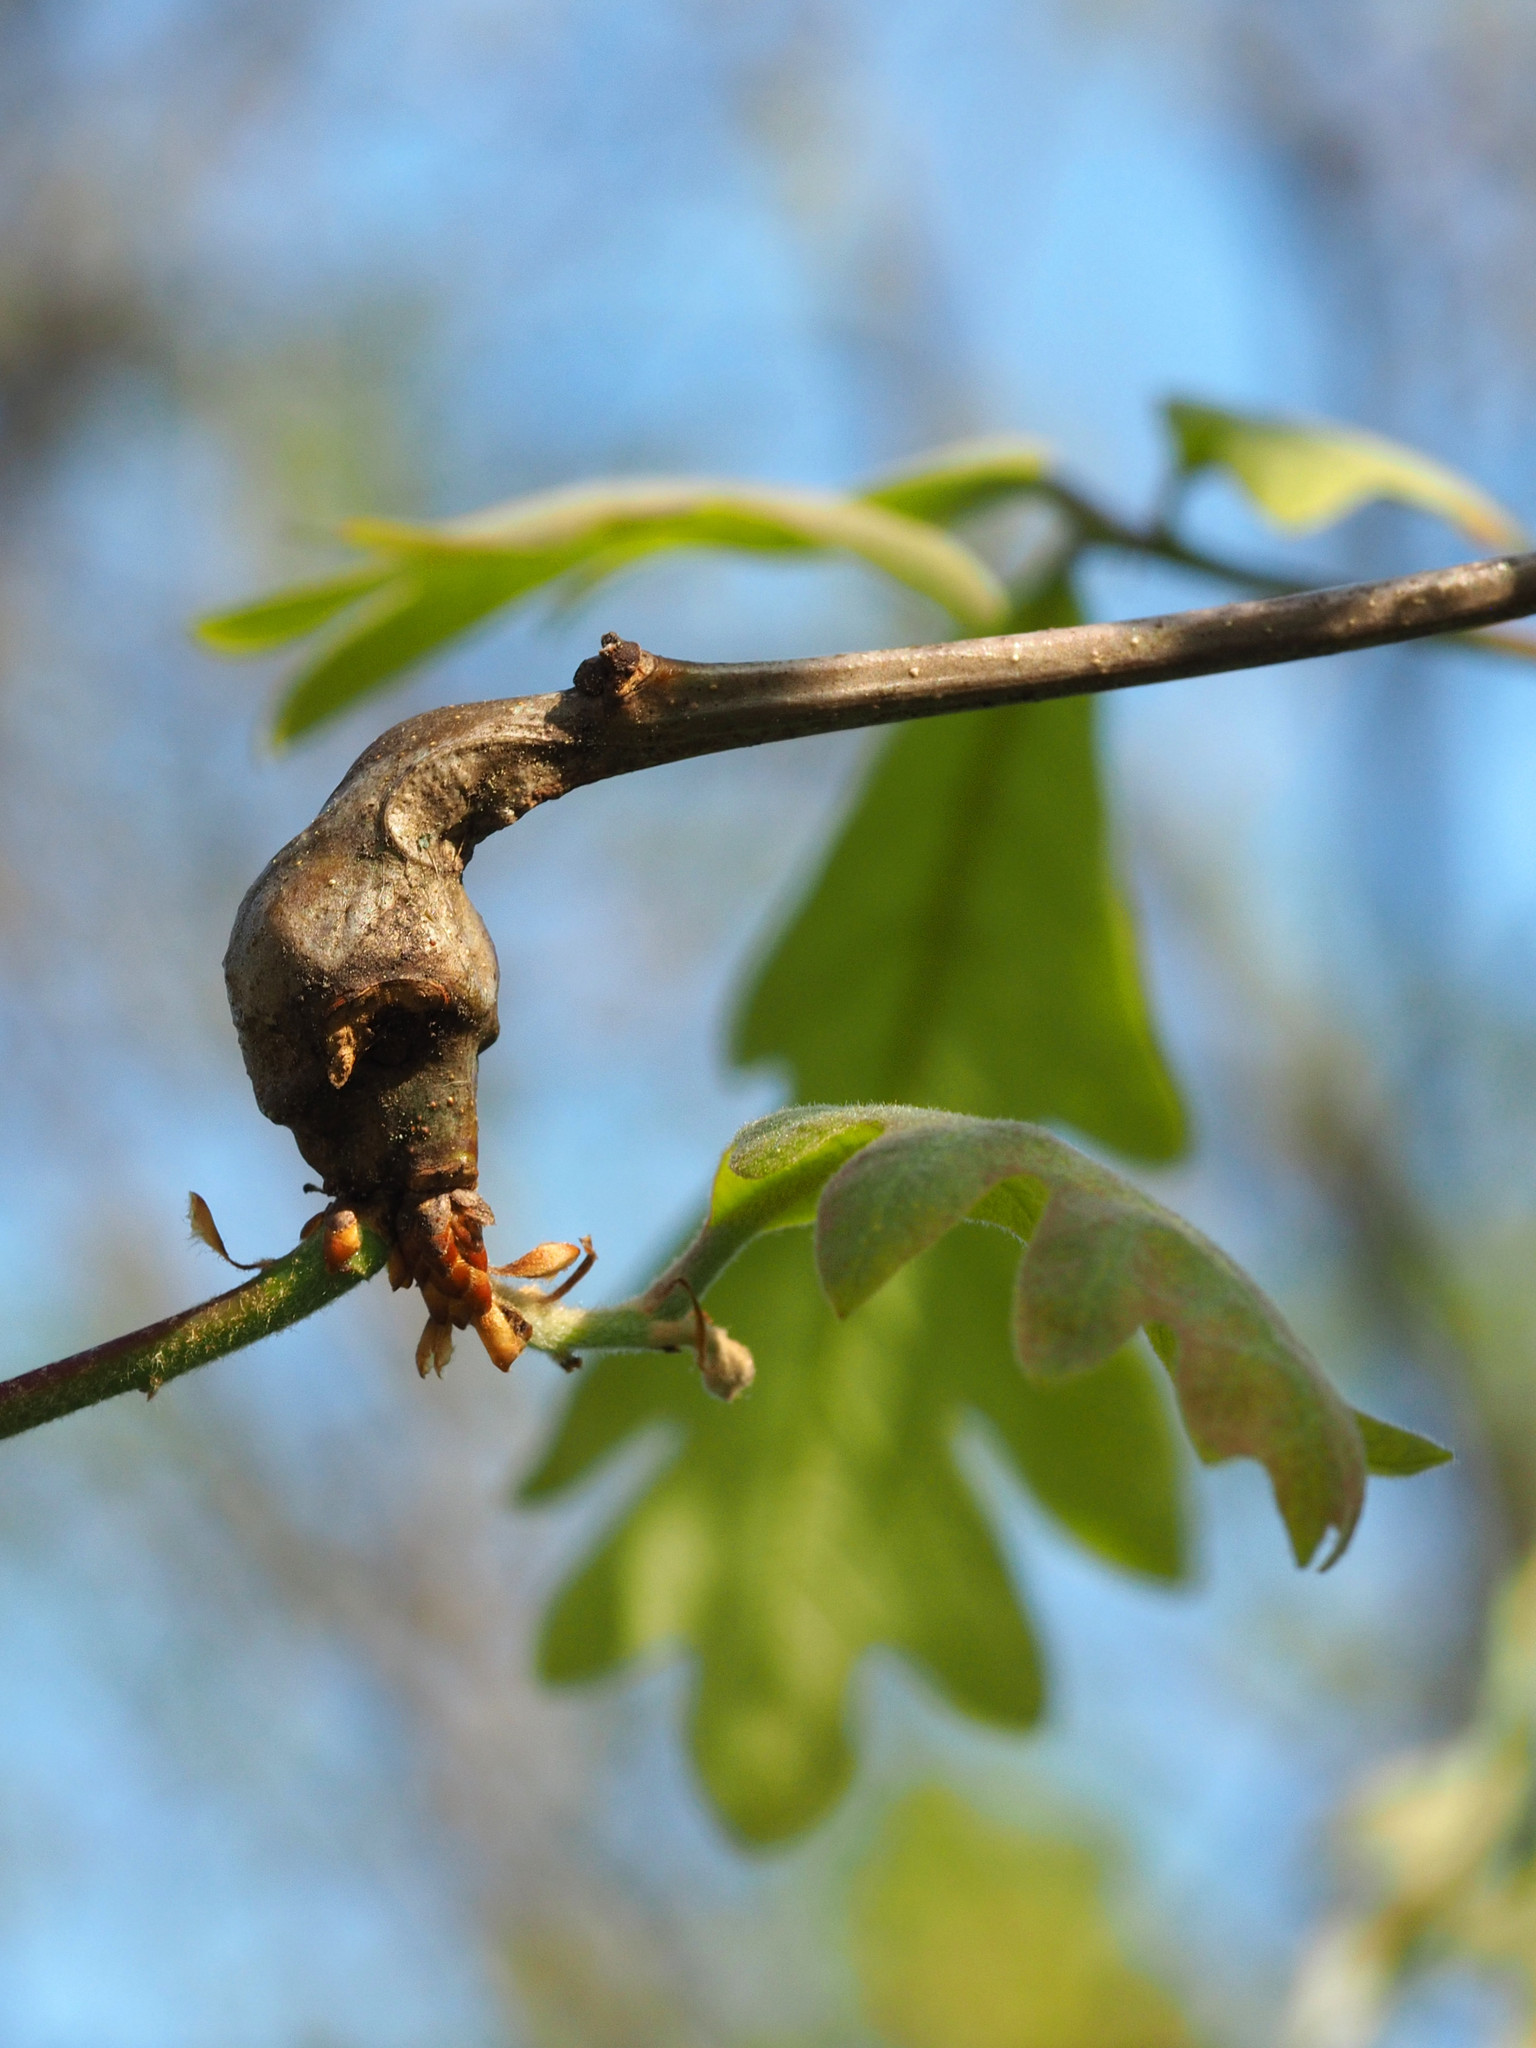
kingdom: Animalia
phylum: Arthropoda
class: Insecta
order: Hymenoptera
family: Cynipidae
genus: Callirhytis
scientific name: Callirhytis clavula
